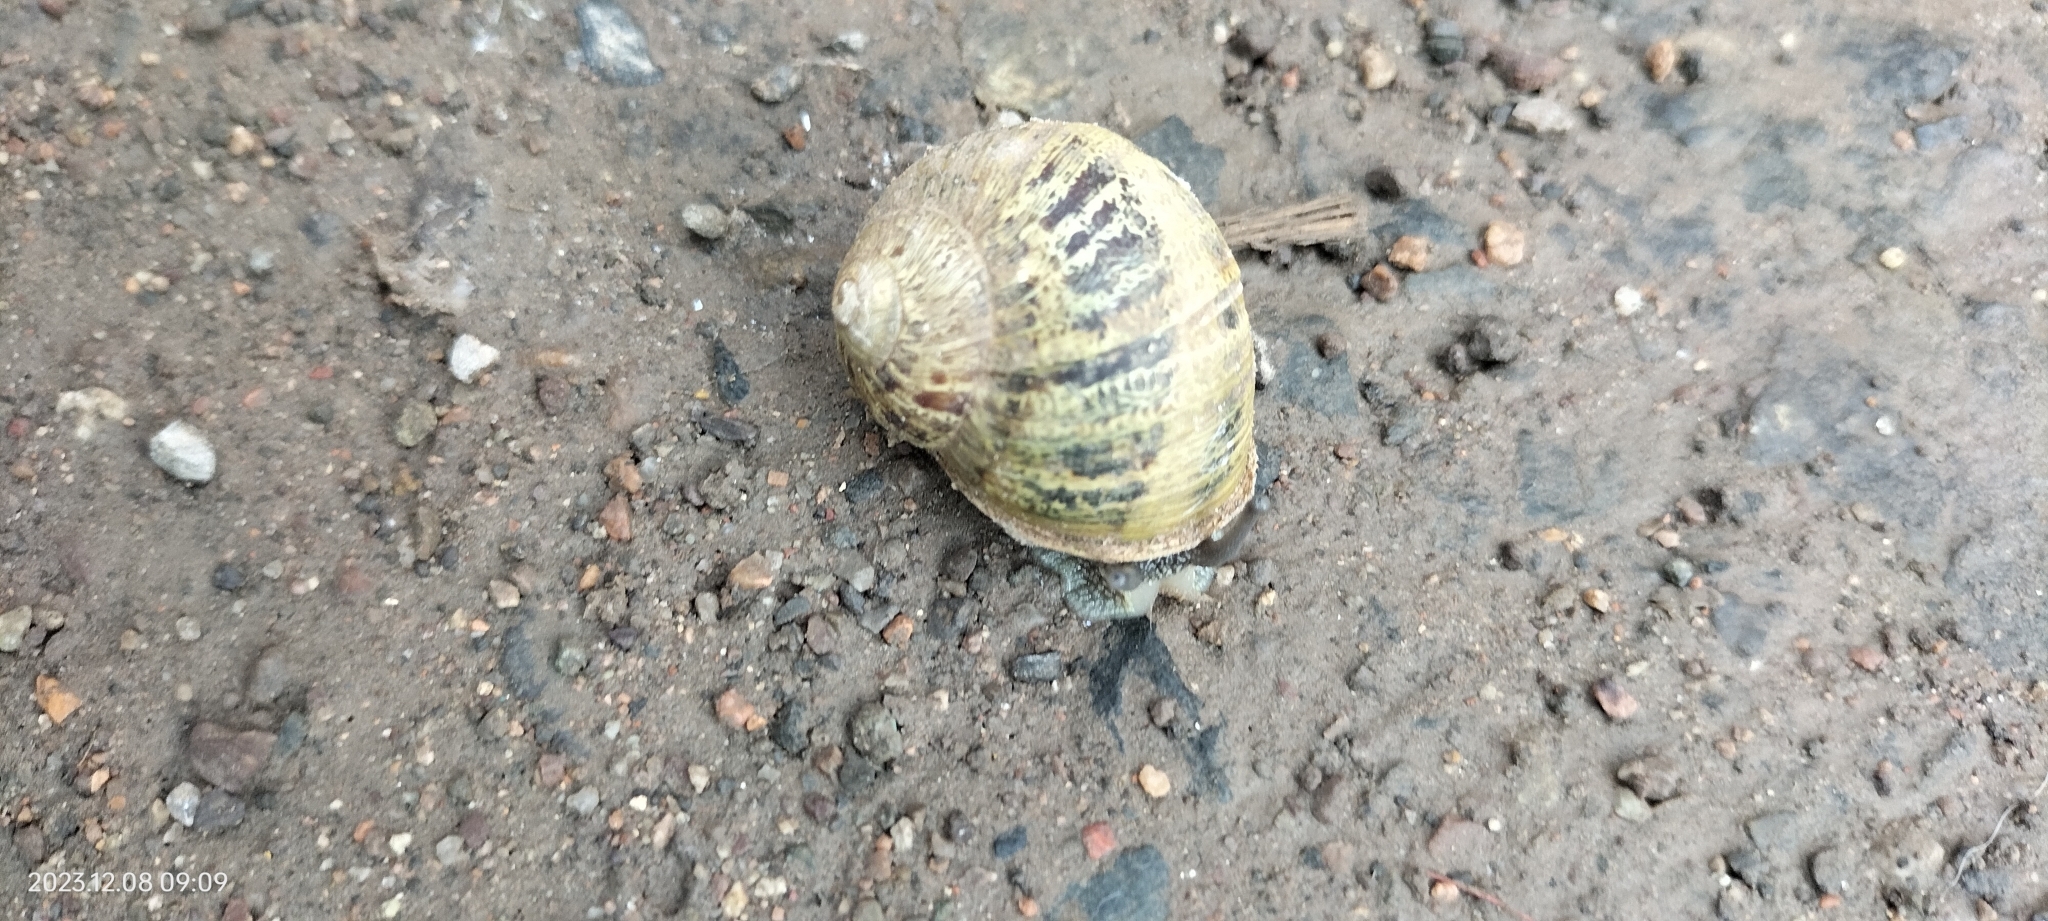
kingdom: Animalia
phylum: Mollusca
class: Gastropoda
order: Stylommatophora
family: Helicidae
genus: Cornu
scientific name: Cornu aspersum
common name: Brown garden snail
